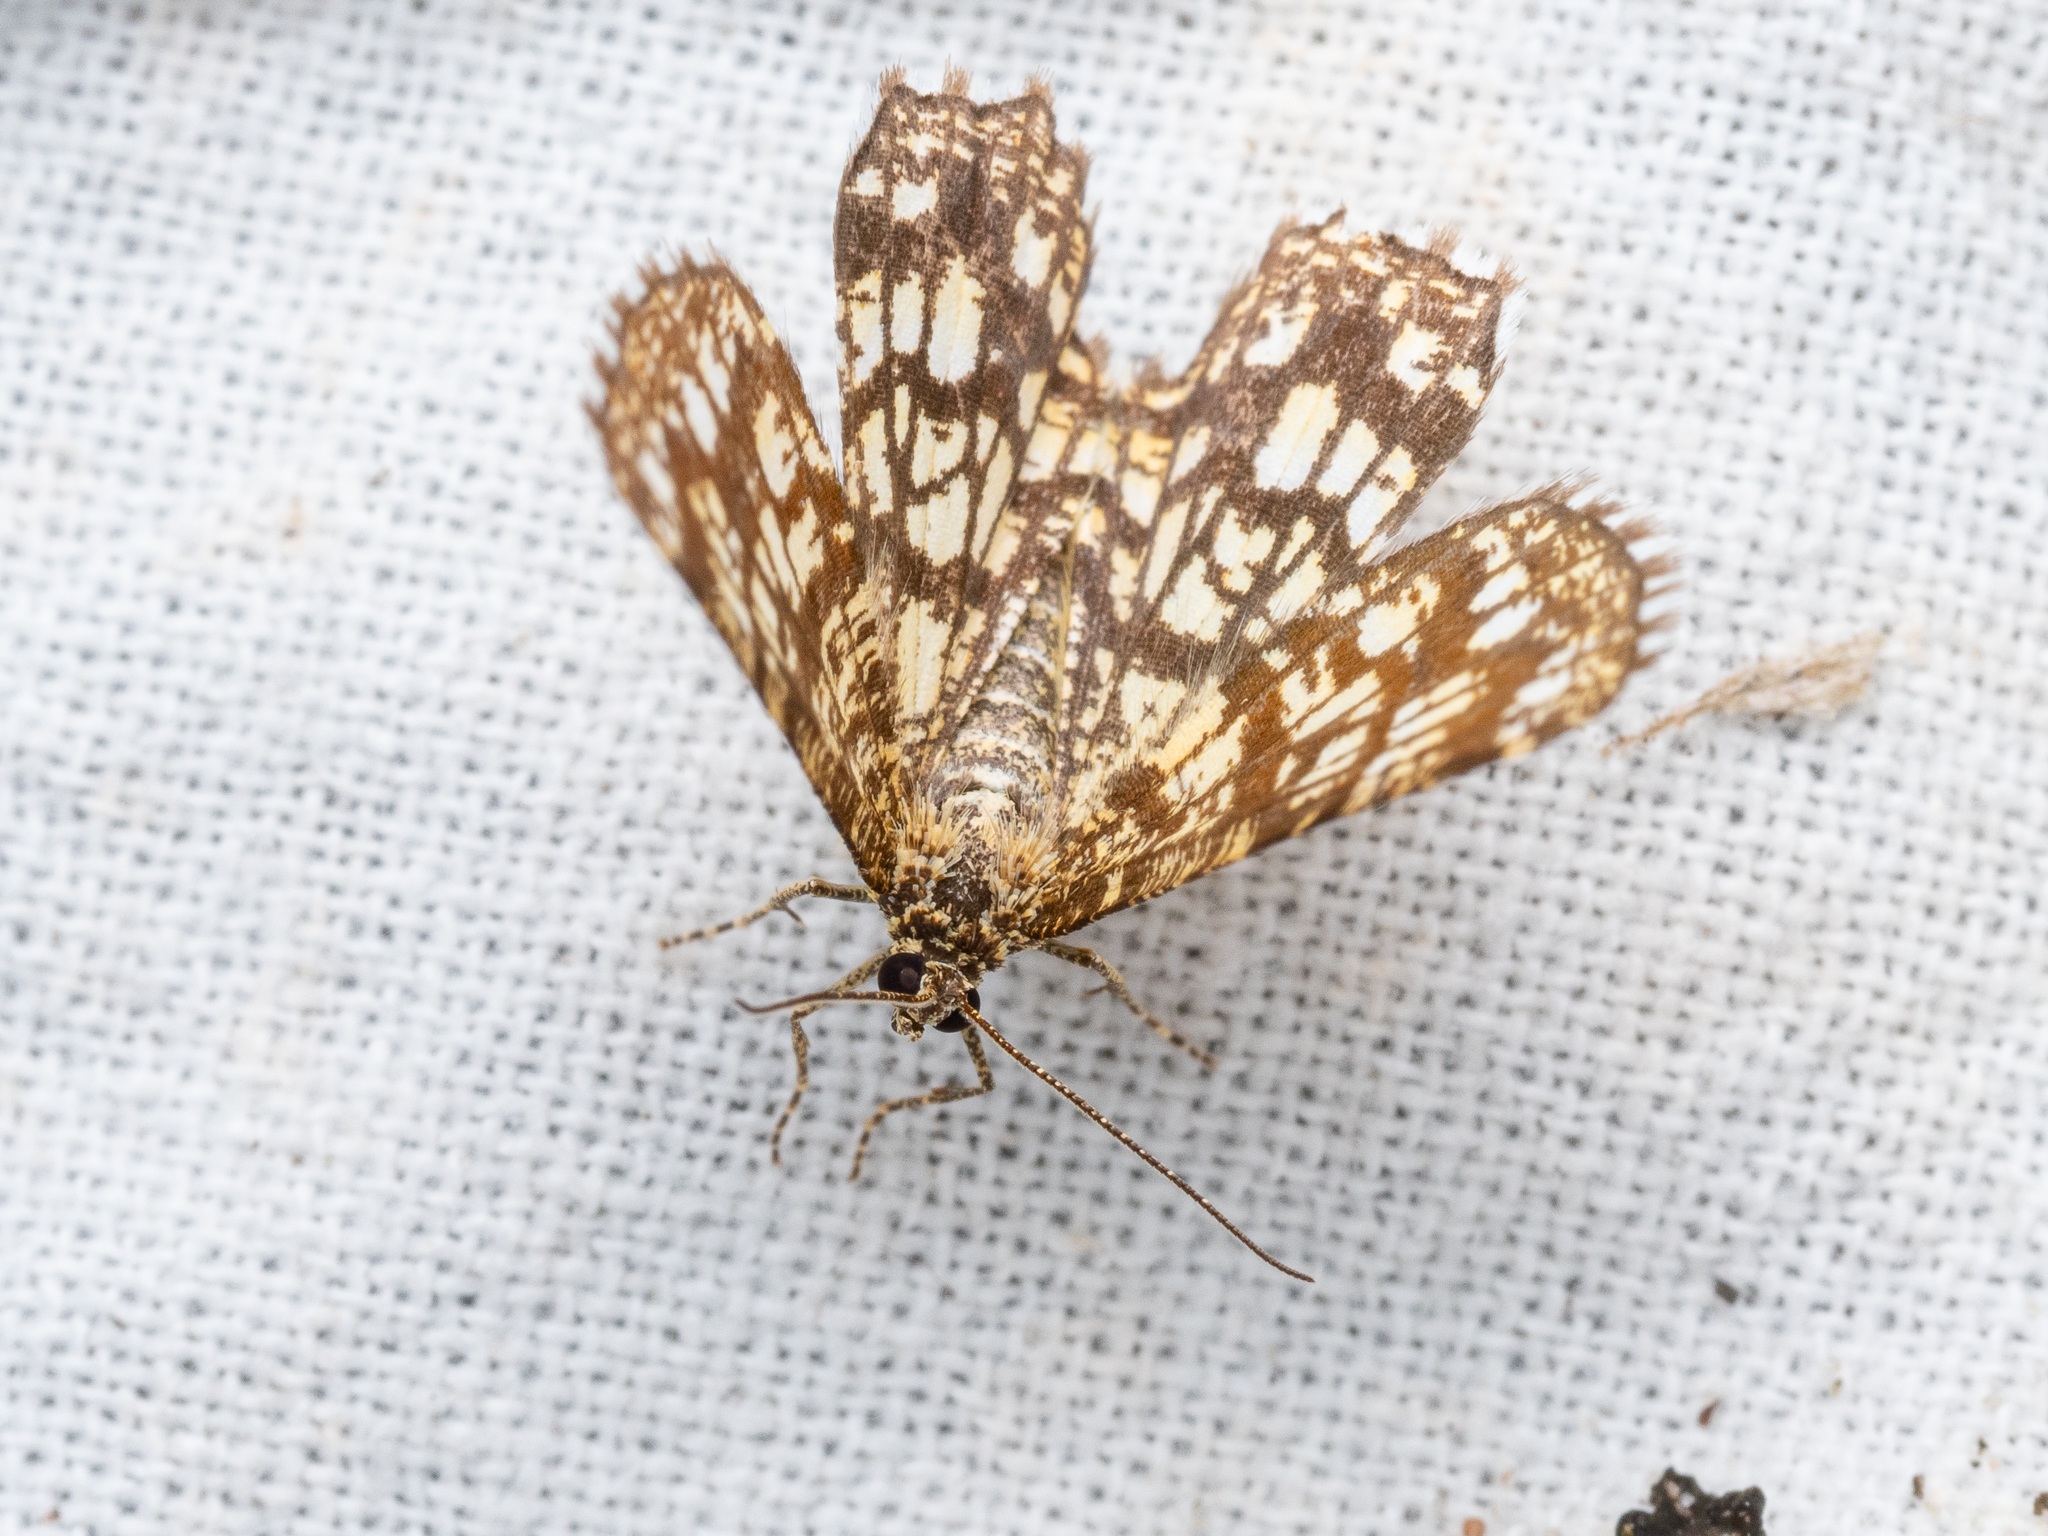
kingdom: Animalia
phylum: Arthropoda
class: Insecta
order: Lepidoptera
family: Geometridae
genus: Chiasmia
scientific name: Chiasmia clathrata
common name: Latticed heath
